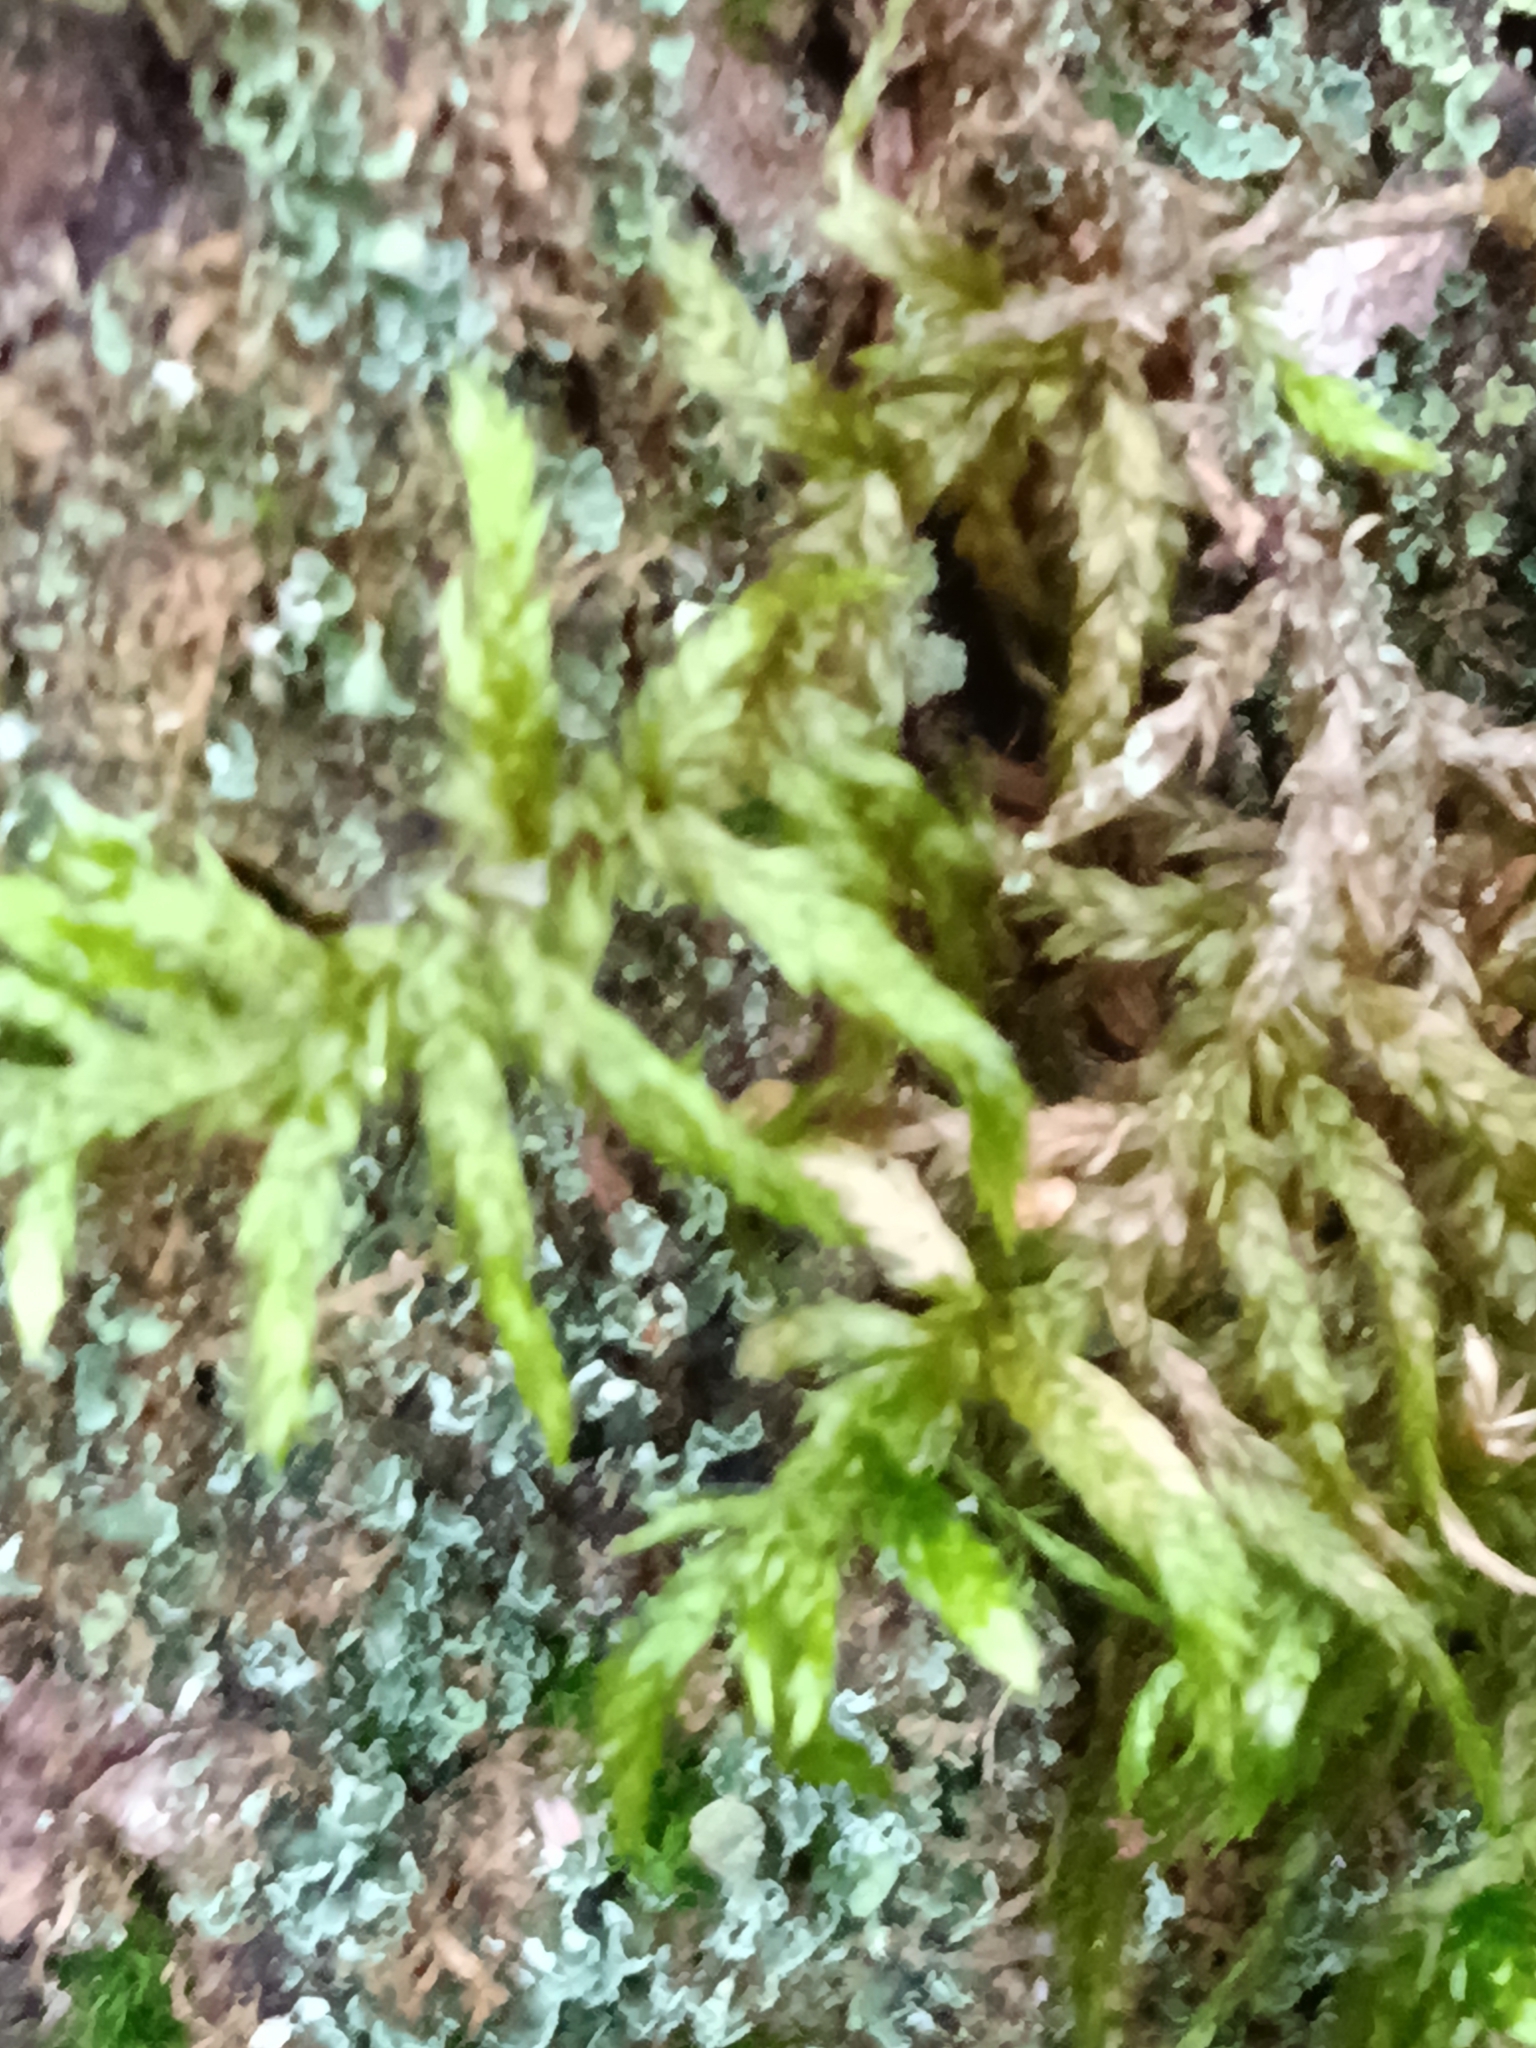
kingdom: Plantae
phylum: Bryophyta
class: Bryopsida
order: Hypnales
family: Hylocomiaceae
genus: Pleurozium
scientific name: Pleurozium schreberi
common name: Red-stemmed feather moss
